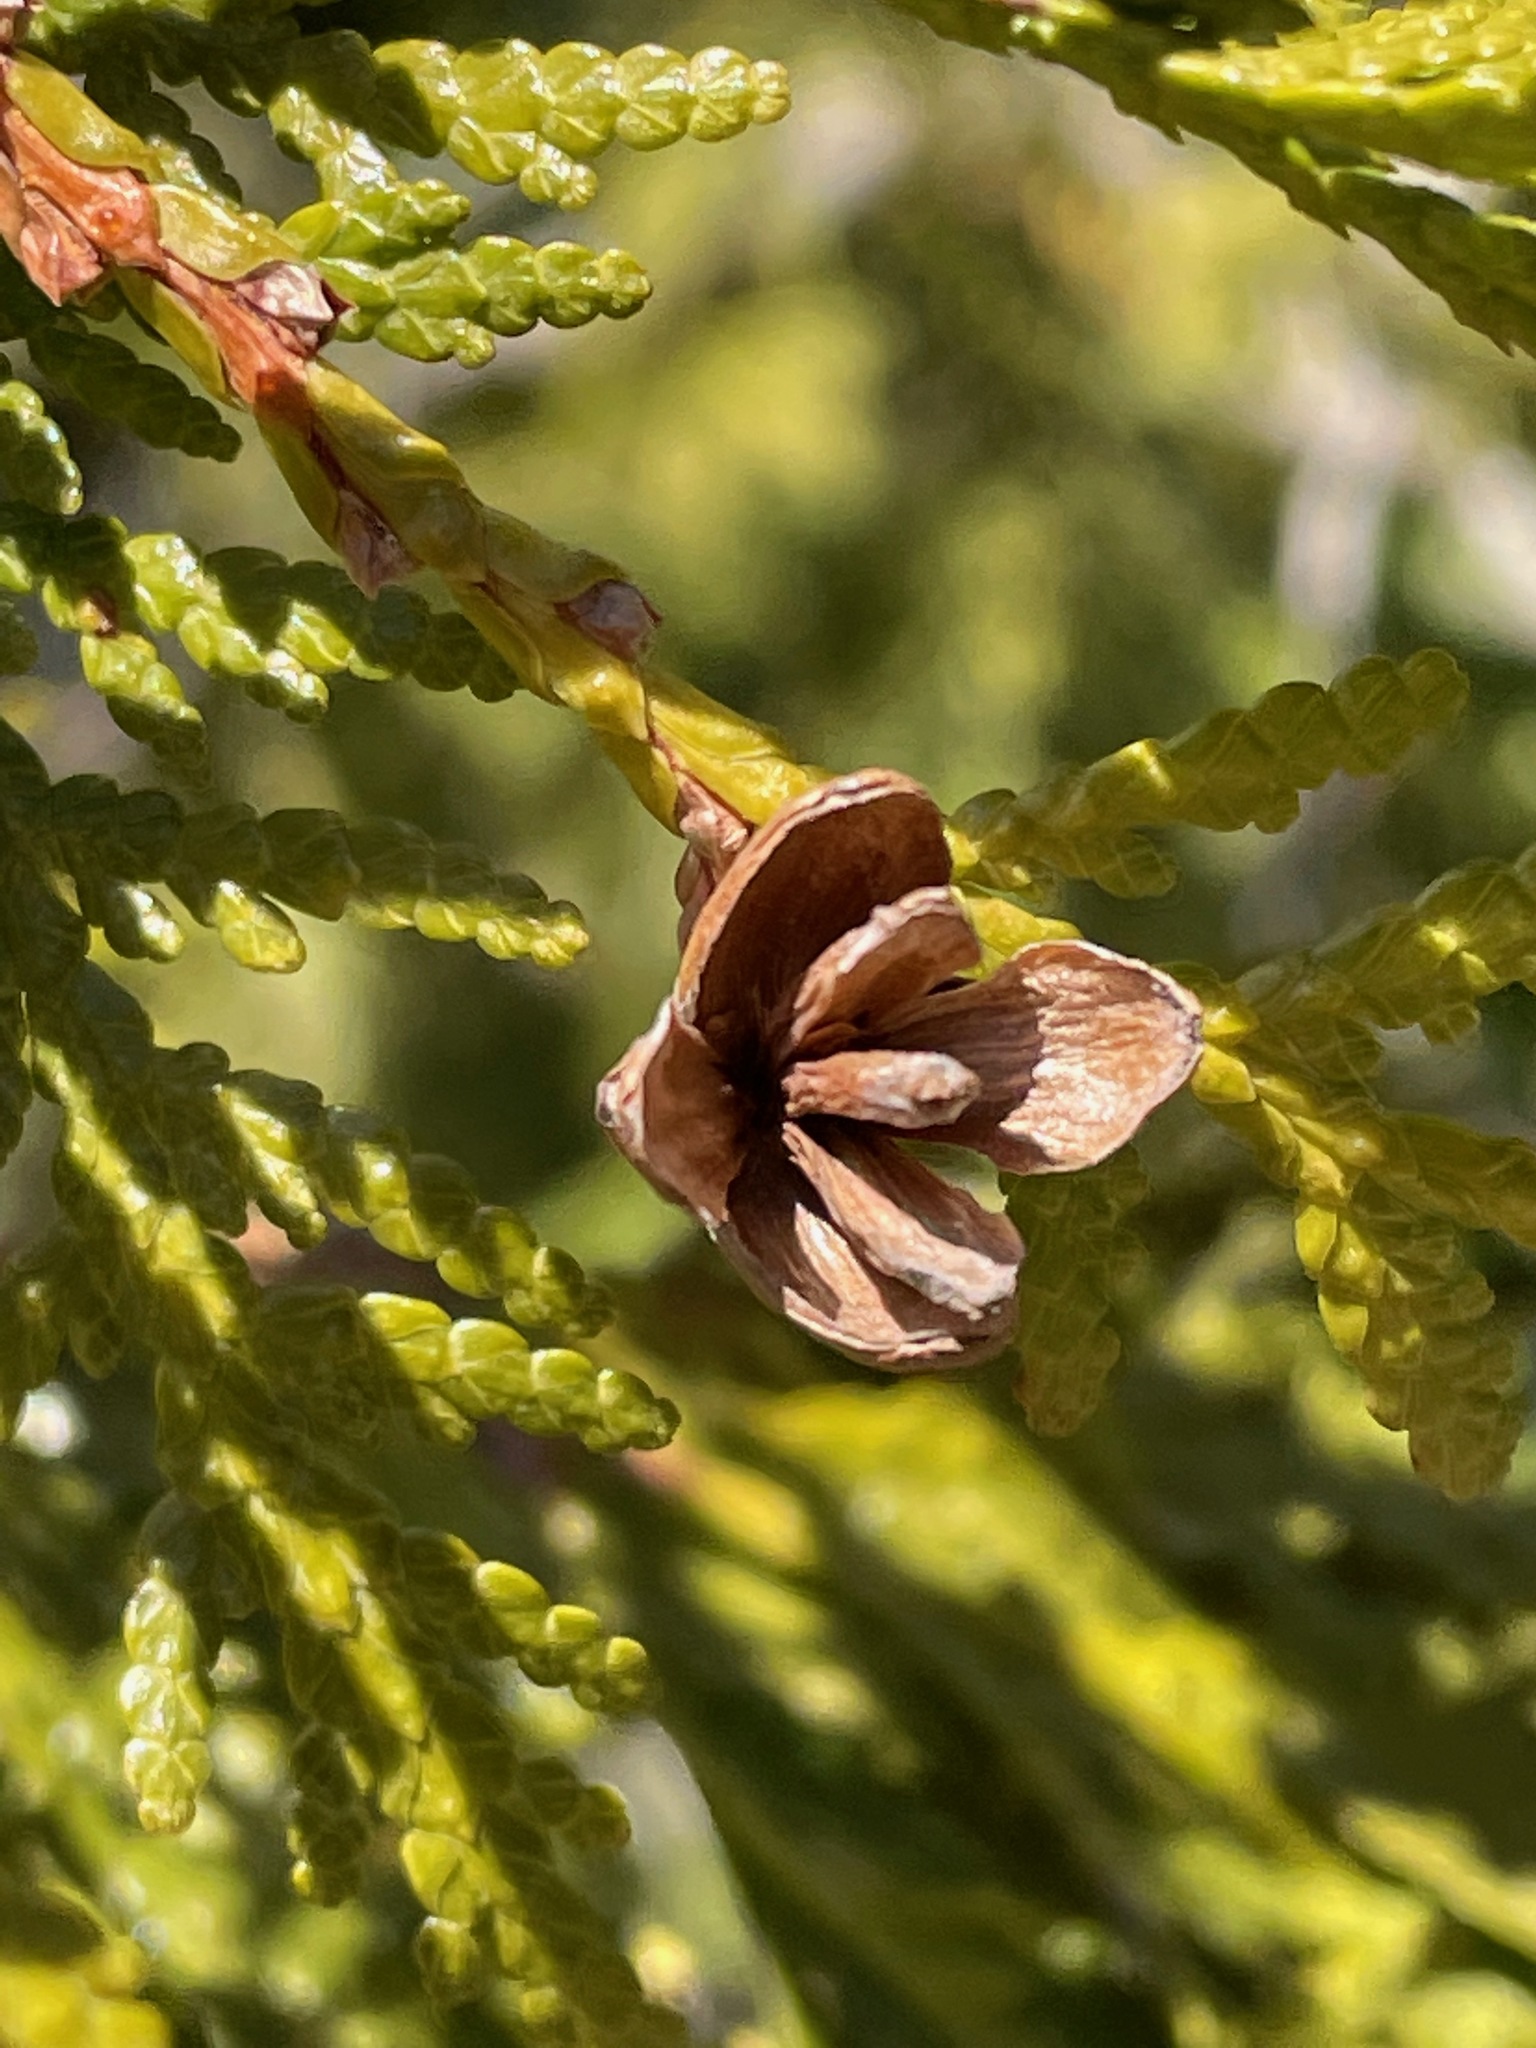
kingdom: Plantae
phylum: Tracheophyta
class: Pinopsida
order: Pinales
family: Cupressaceae
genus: Thuja
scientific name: Thuja occidentalis
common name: Northern white-cedar
